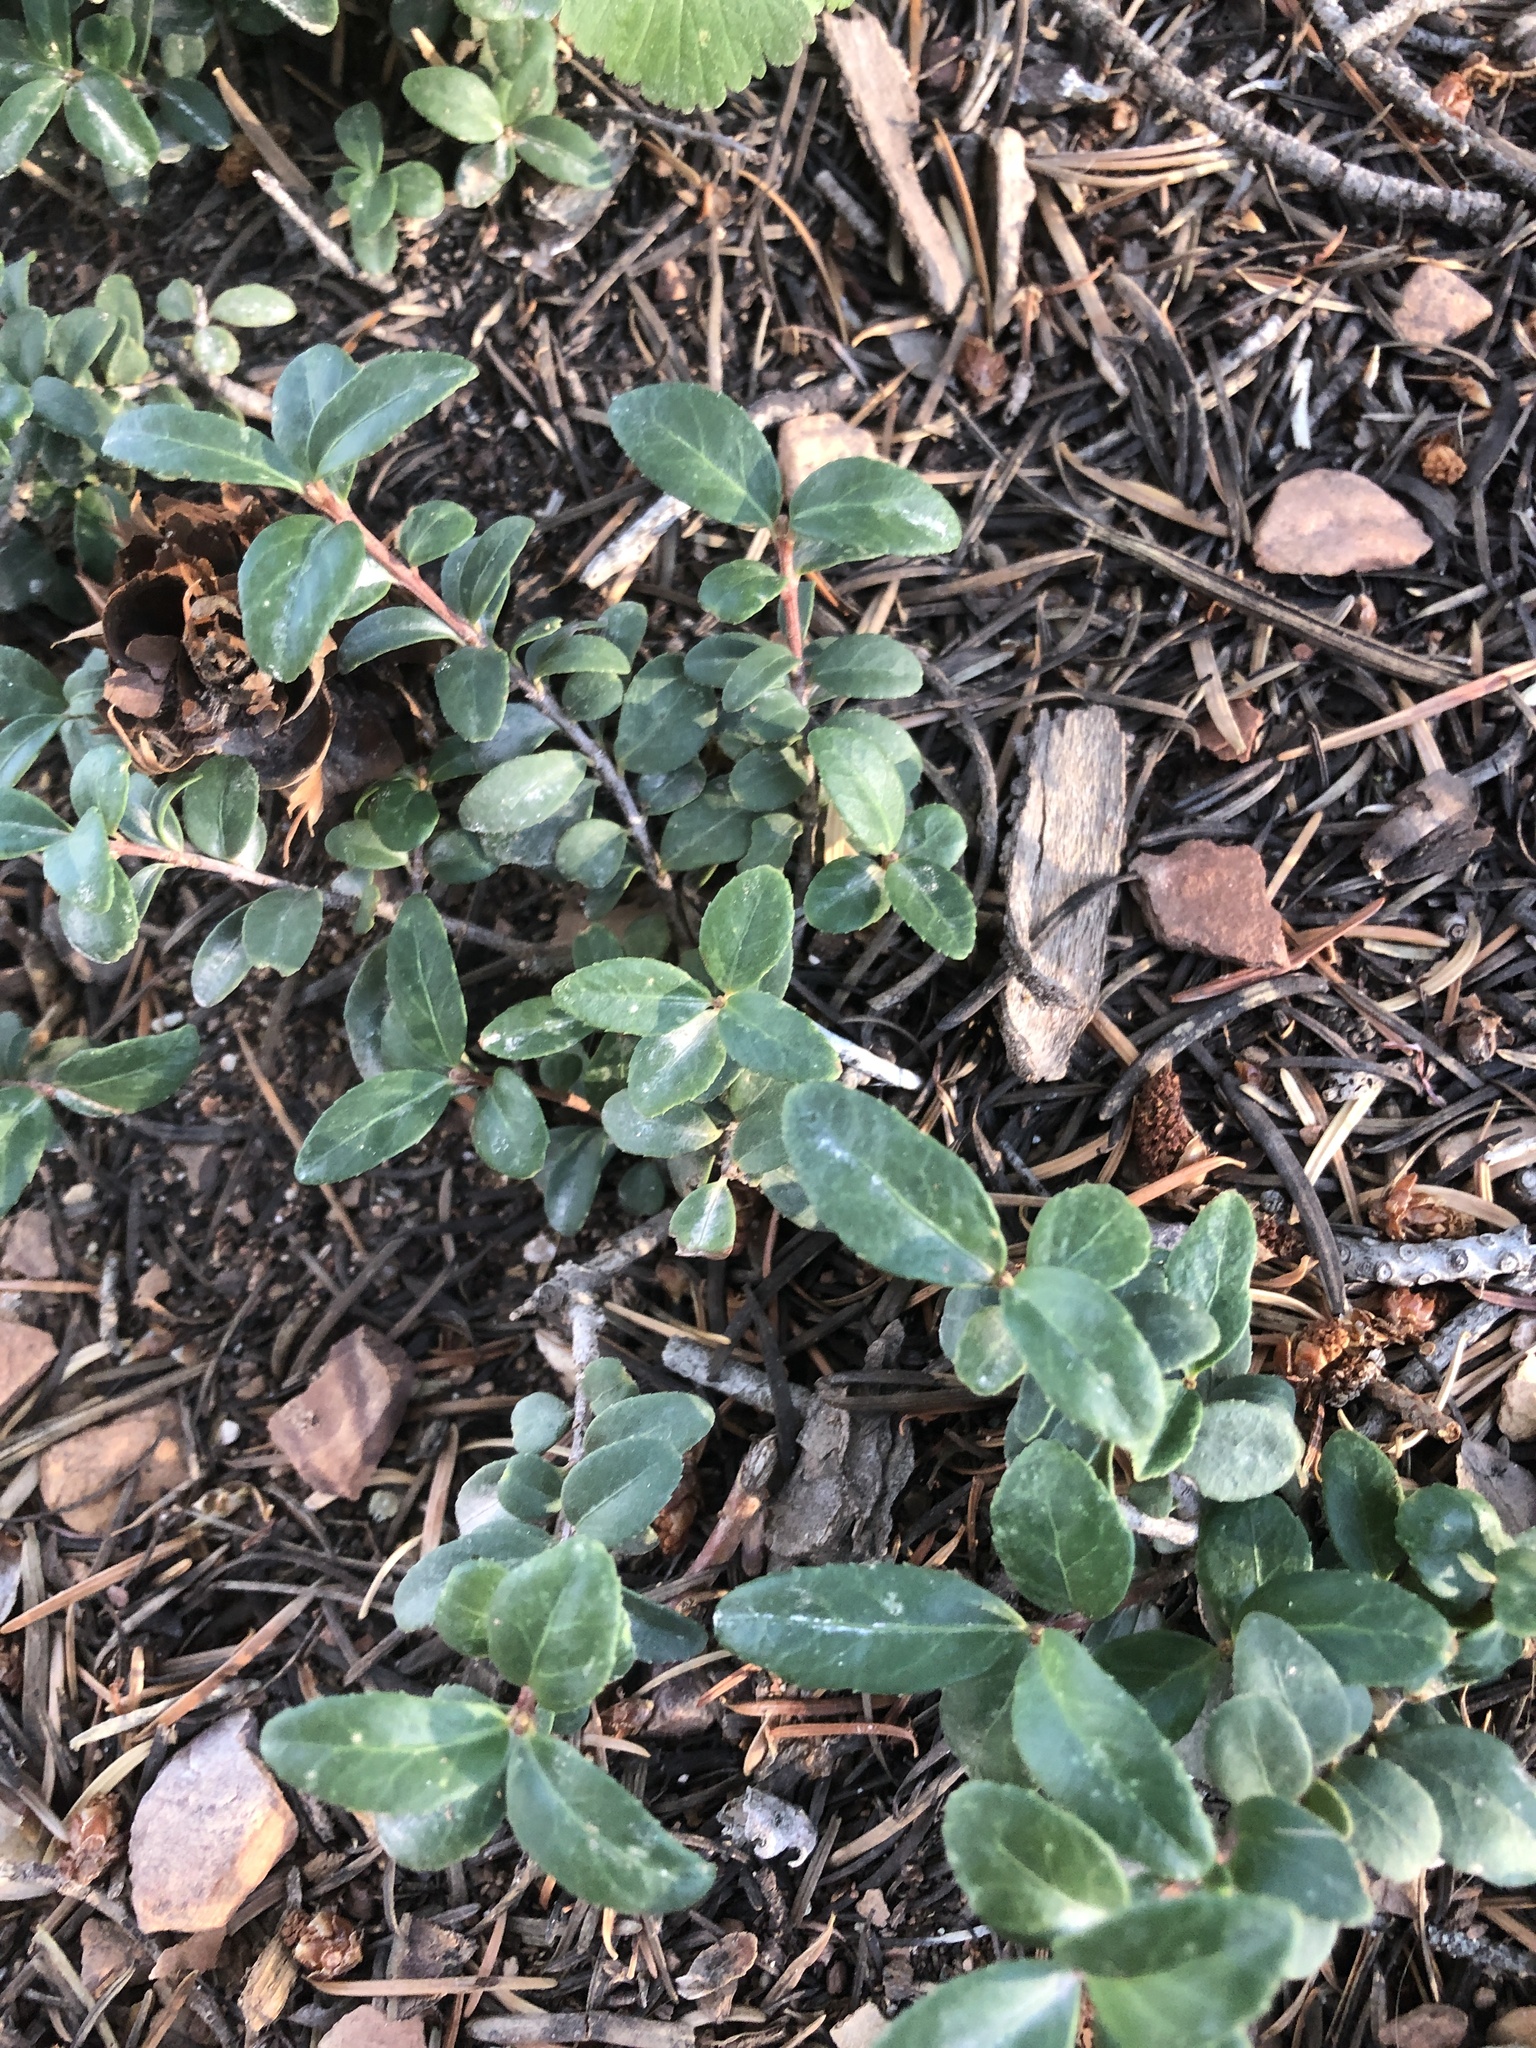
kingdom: Plantae
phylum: Tracheophyta
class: Magnoliopsida
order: Celastrales
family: Celastraceae
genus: Paxistima
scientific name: Paxistima myrsinites
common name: Mountain-lover
